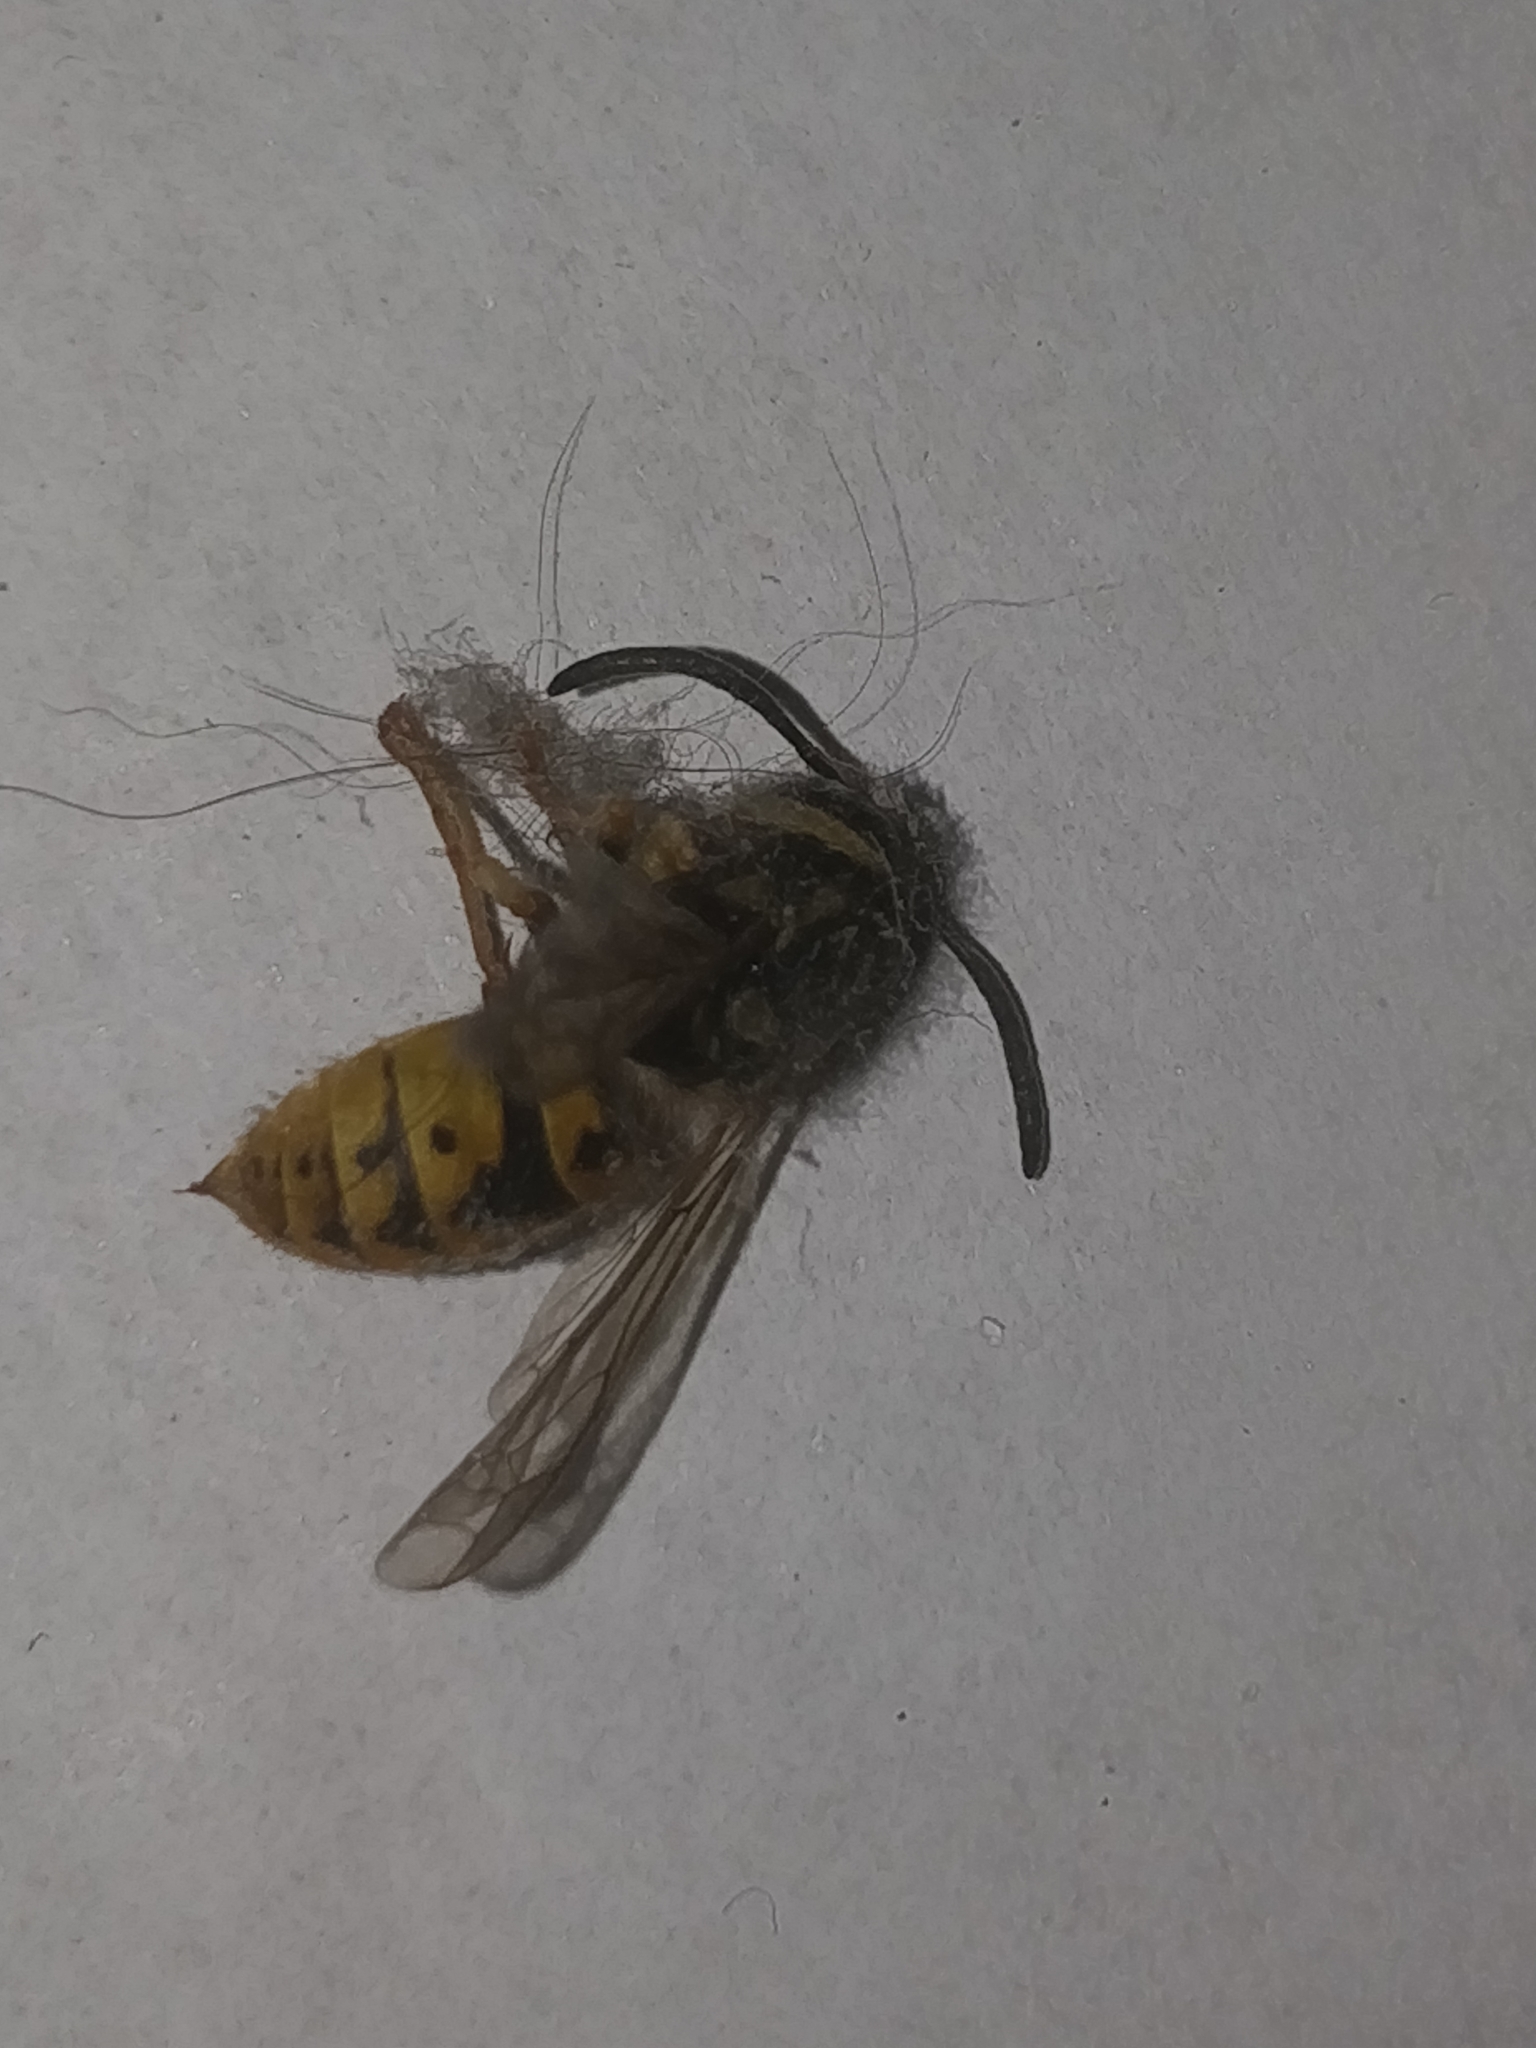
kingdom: Animalia
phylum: Arthropoda
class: Insecta
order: Hymenoptera
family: Vespidae
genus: Vespula
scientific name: Vespula germanica
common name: German wasp
